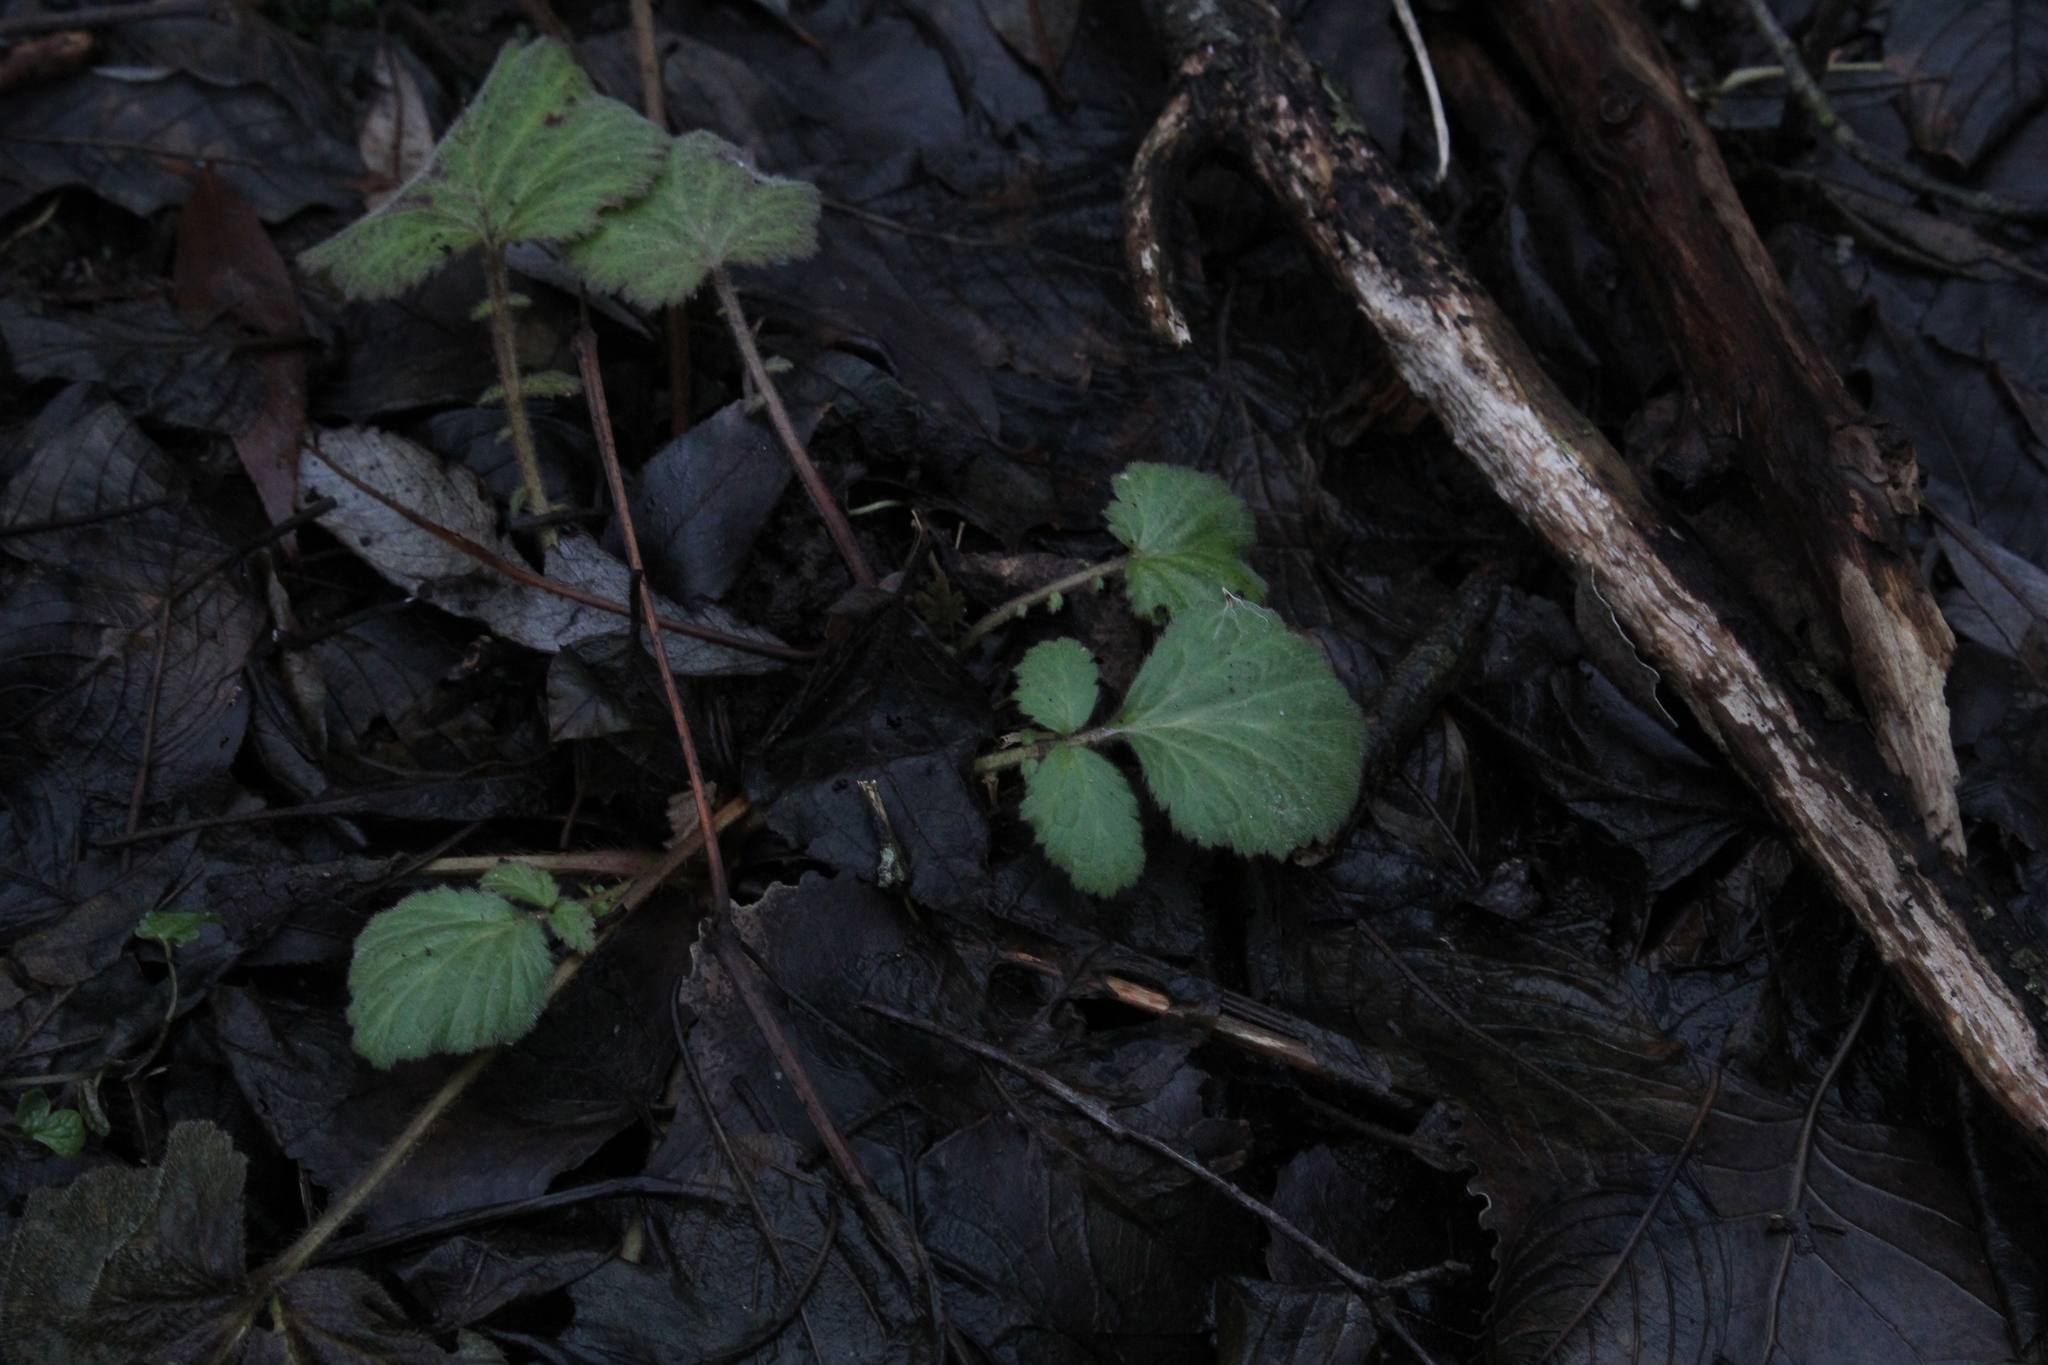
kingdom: Plantae
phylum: Tracheophyta
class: Magnoliopsida
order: Rosales
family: Rosaceae
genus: Geum
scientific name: Geum canadense
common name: White avens
